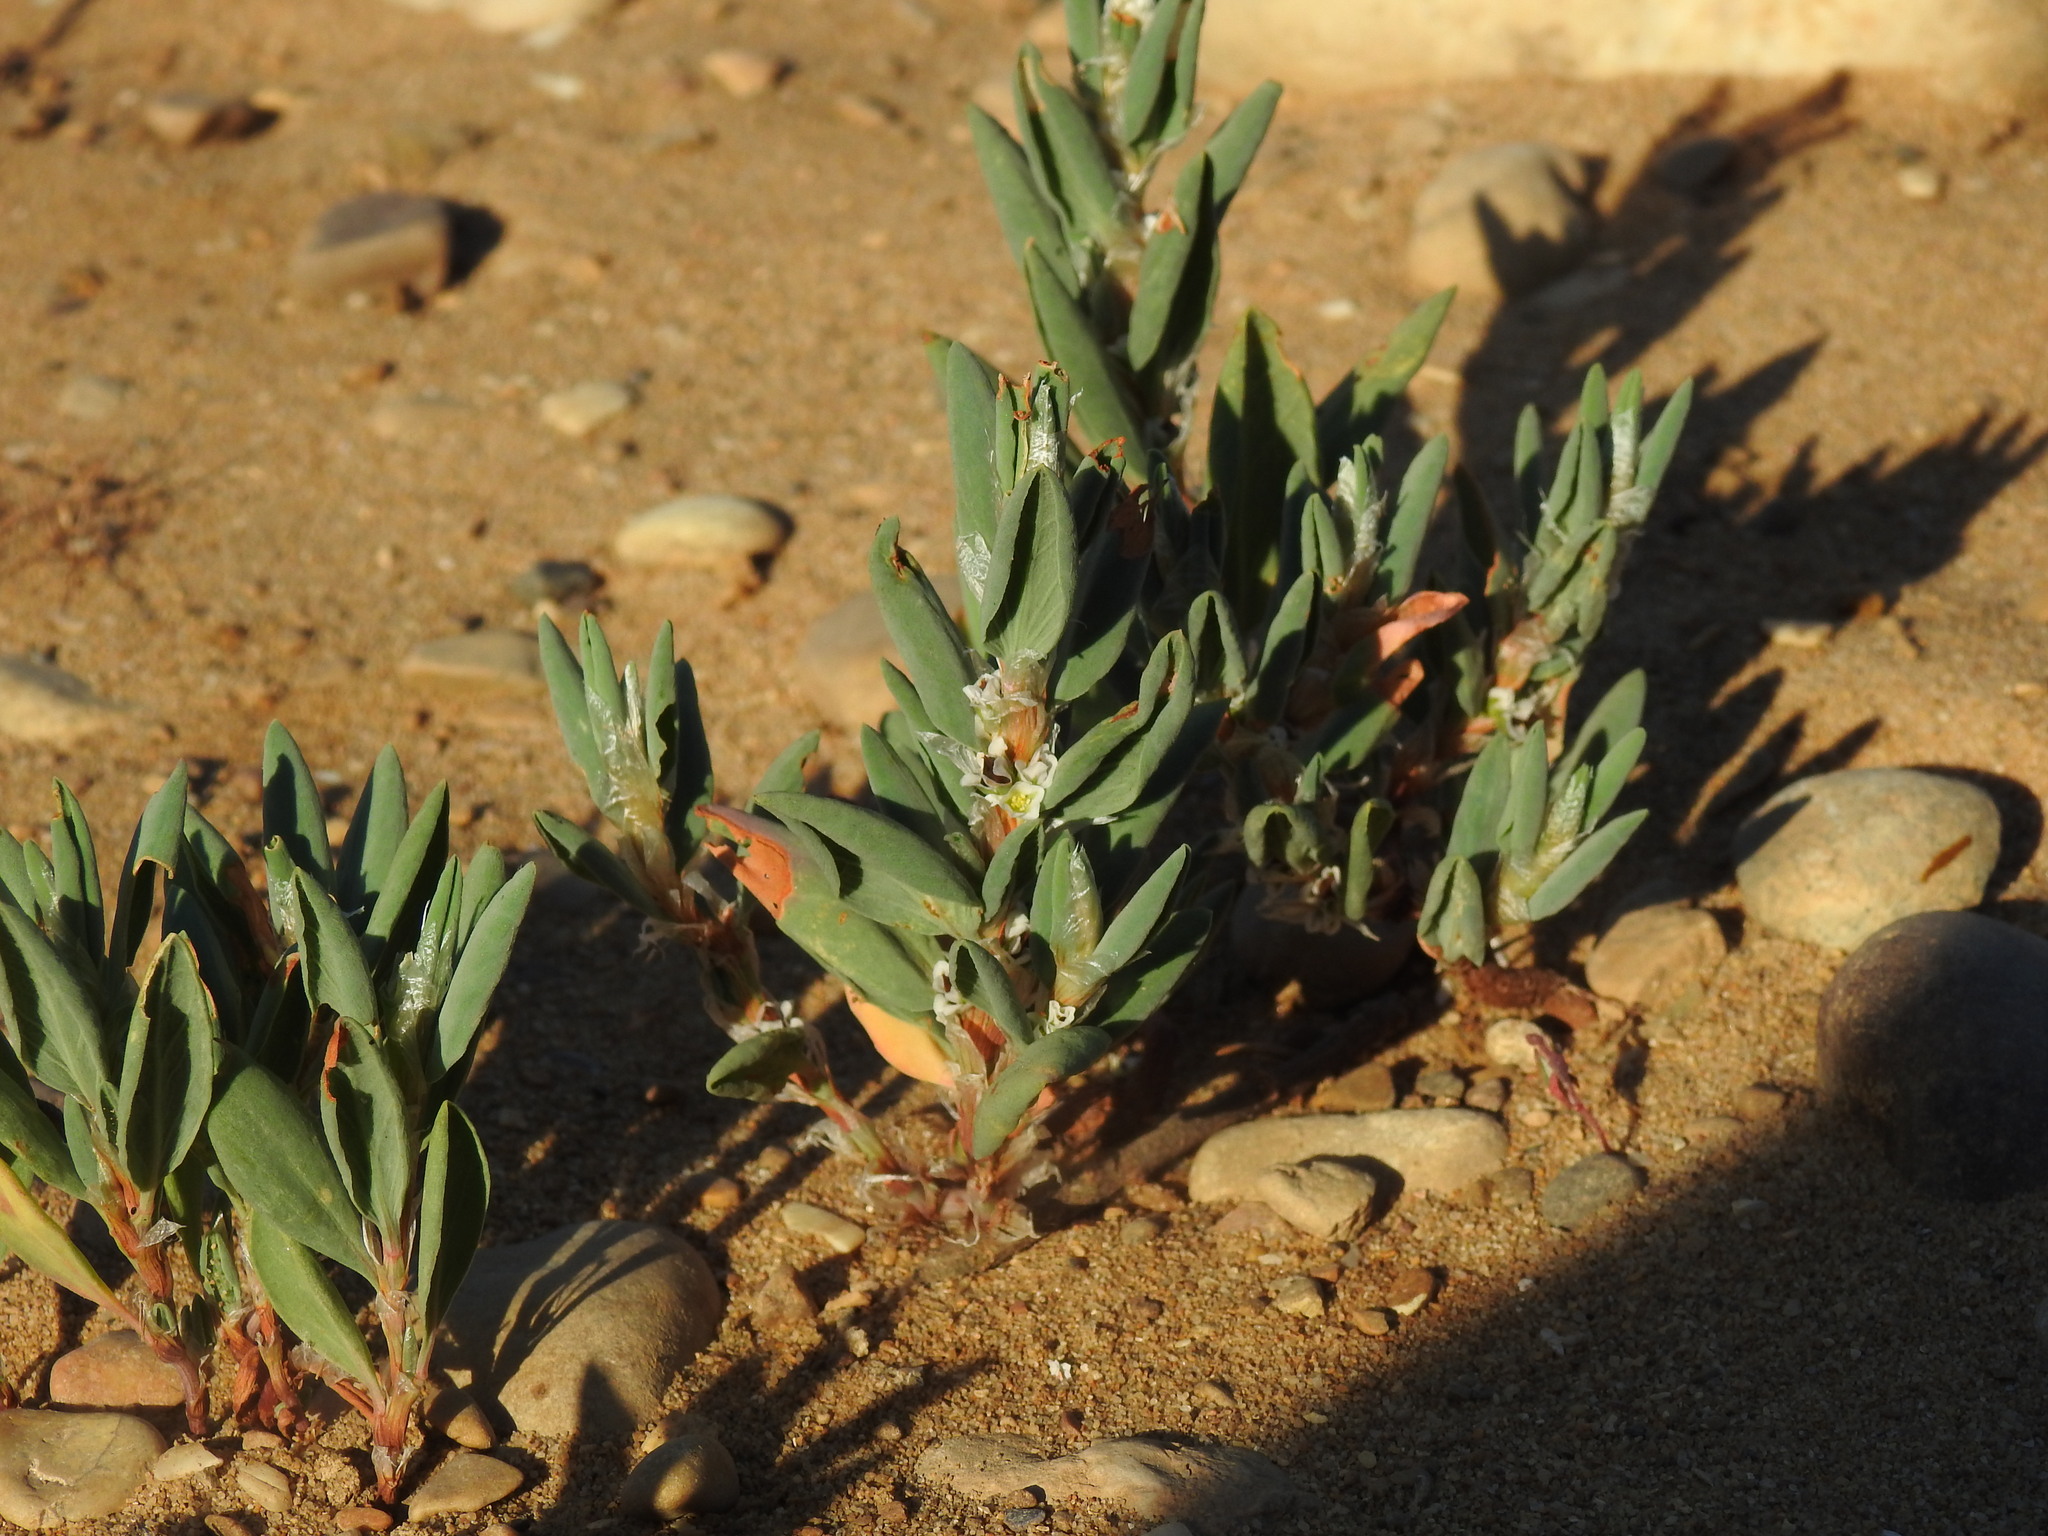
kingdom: Plantae
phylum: Tracheophyta
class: Magnoliopsida
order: Caryophyllales
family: Polygonaceae
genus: Polygonum
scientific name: Polygonum maritimum
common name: Sea knotgrass
